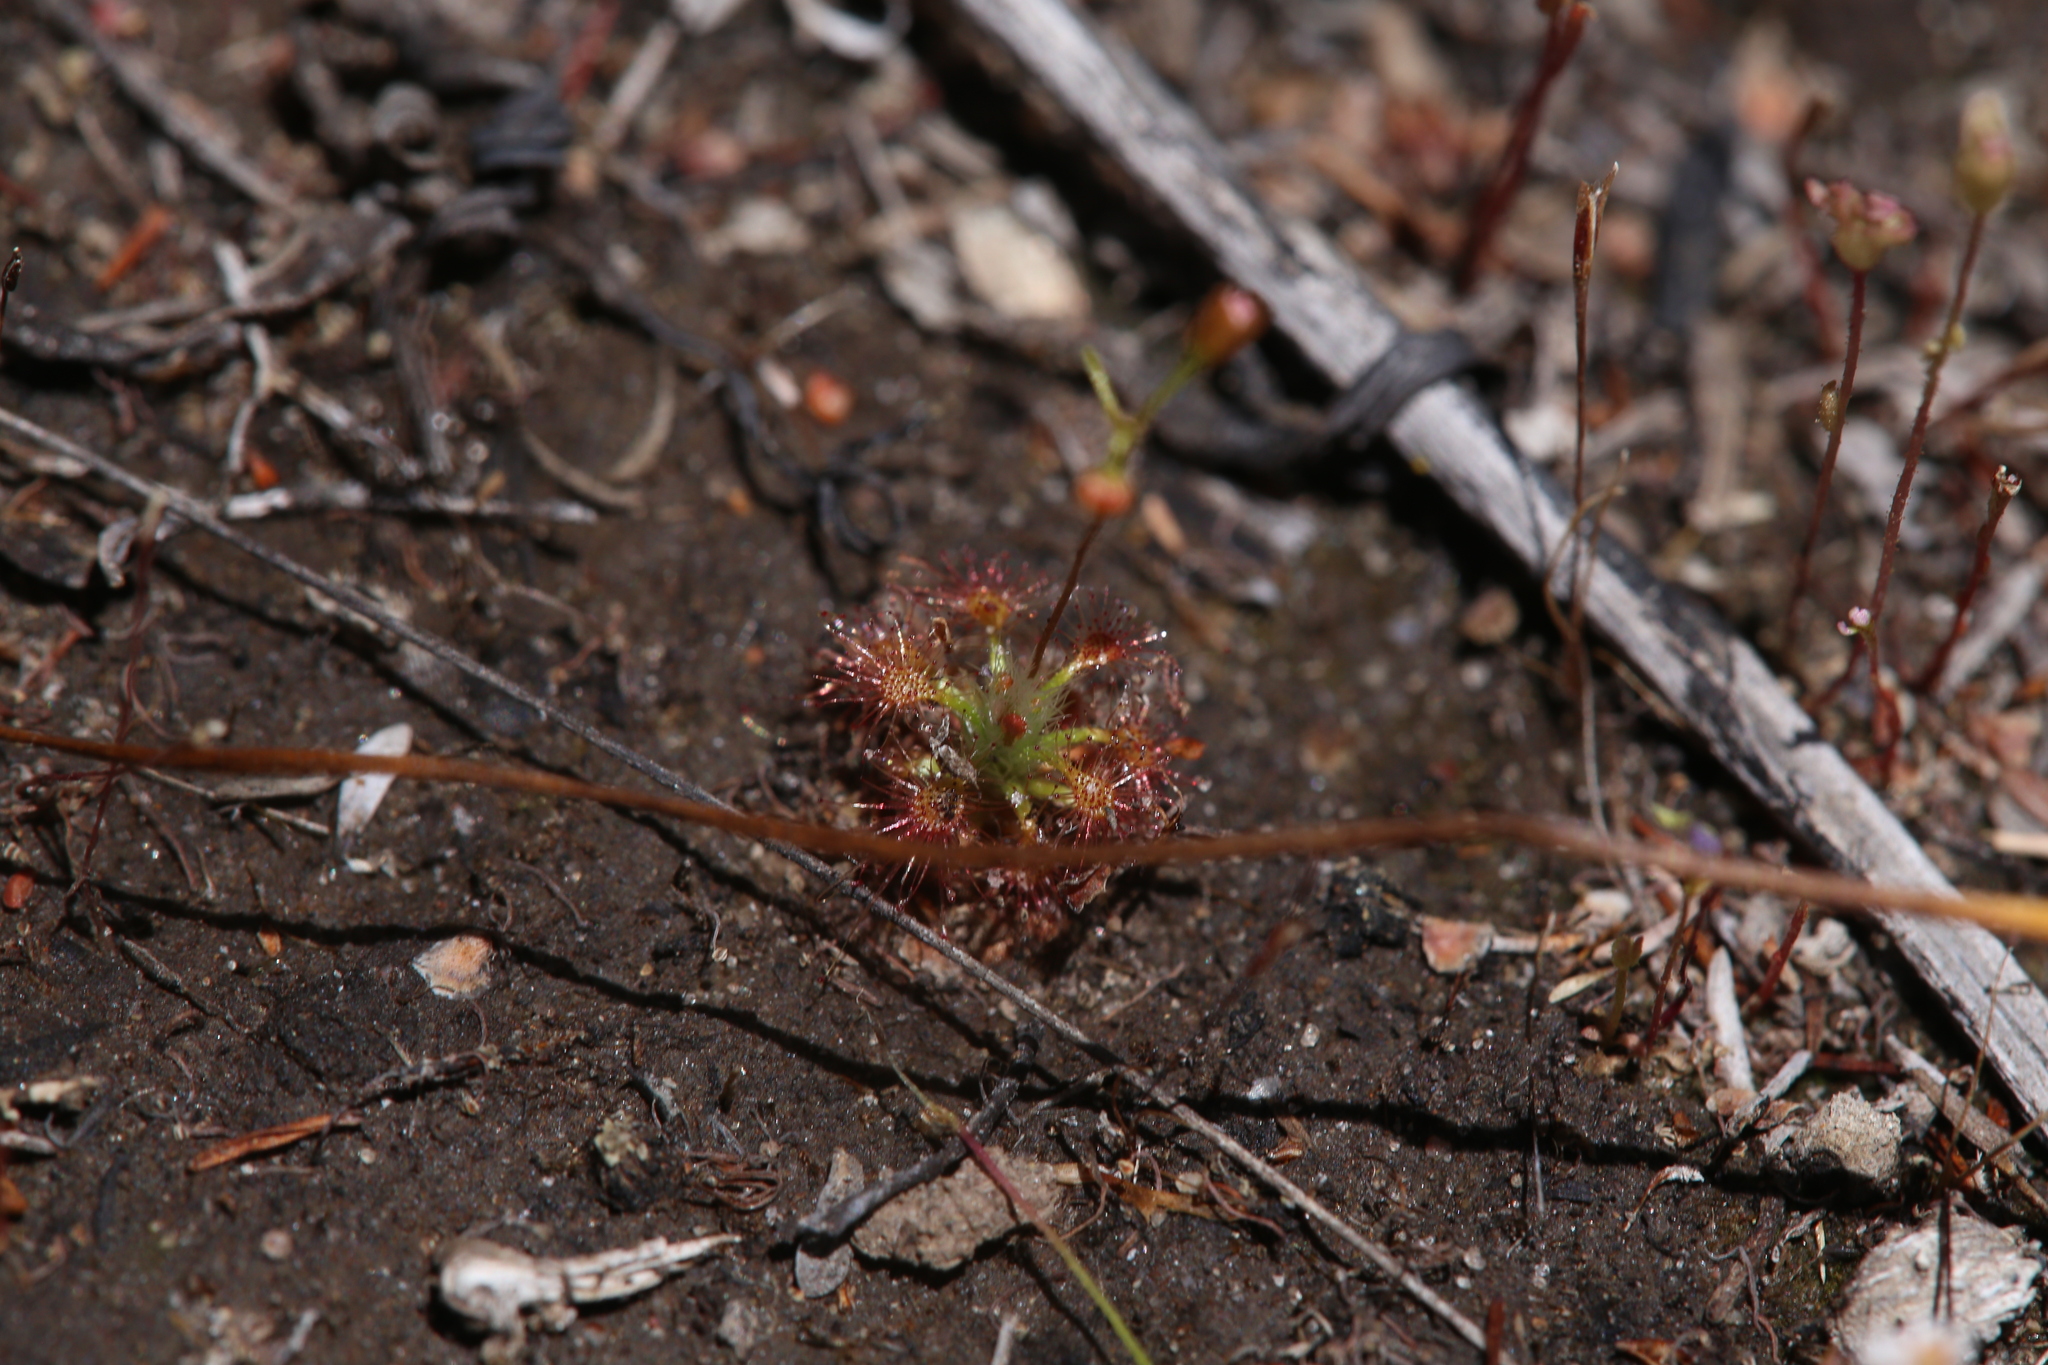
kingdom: Plantae
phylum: Tracheophyta
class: Magnoliopsida
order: Caryophyllales
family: Droseraceae
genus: Drosera
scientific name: Drosera leucostigma
